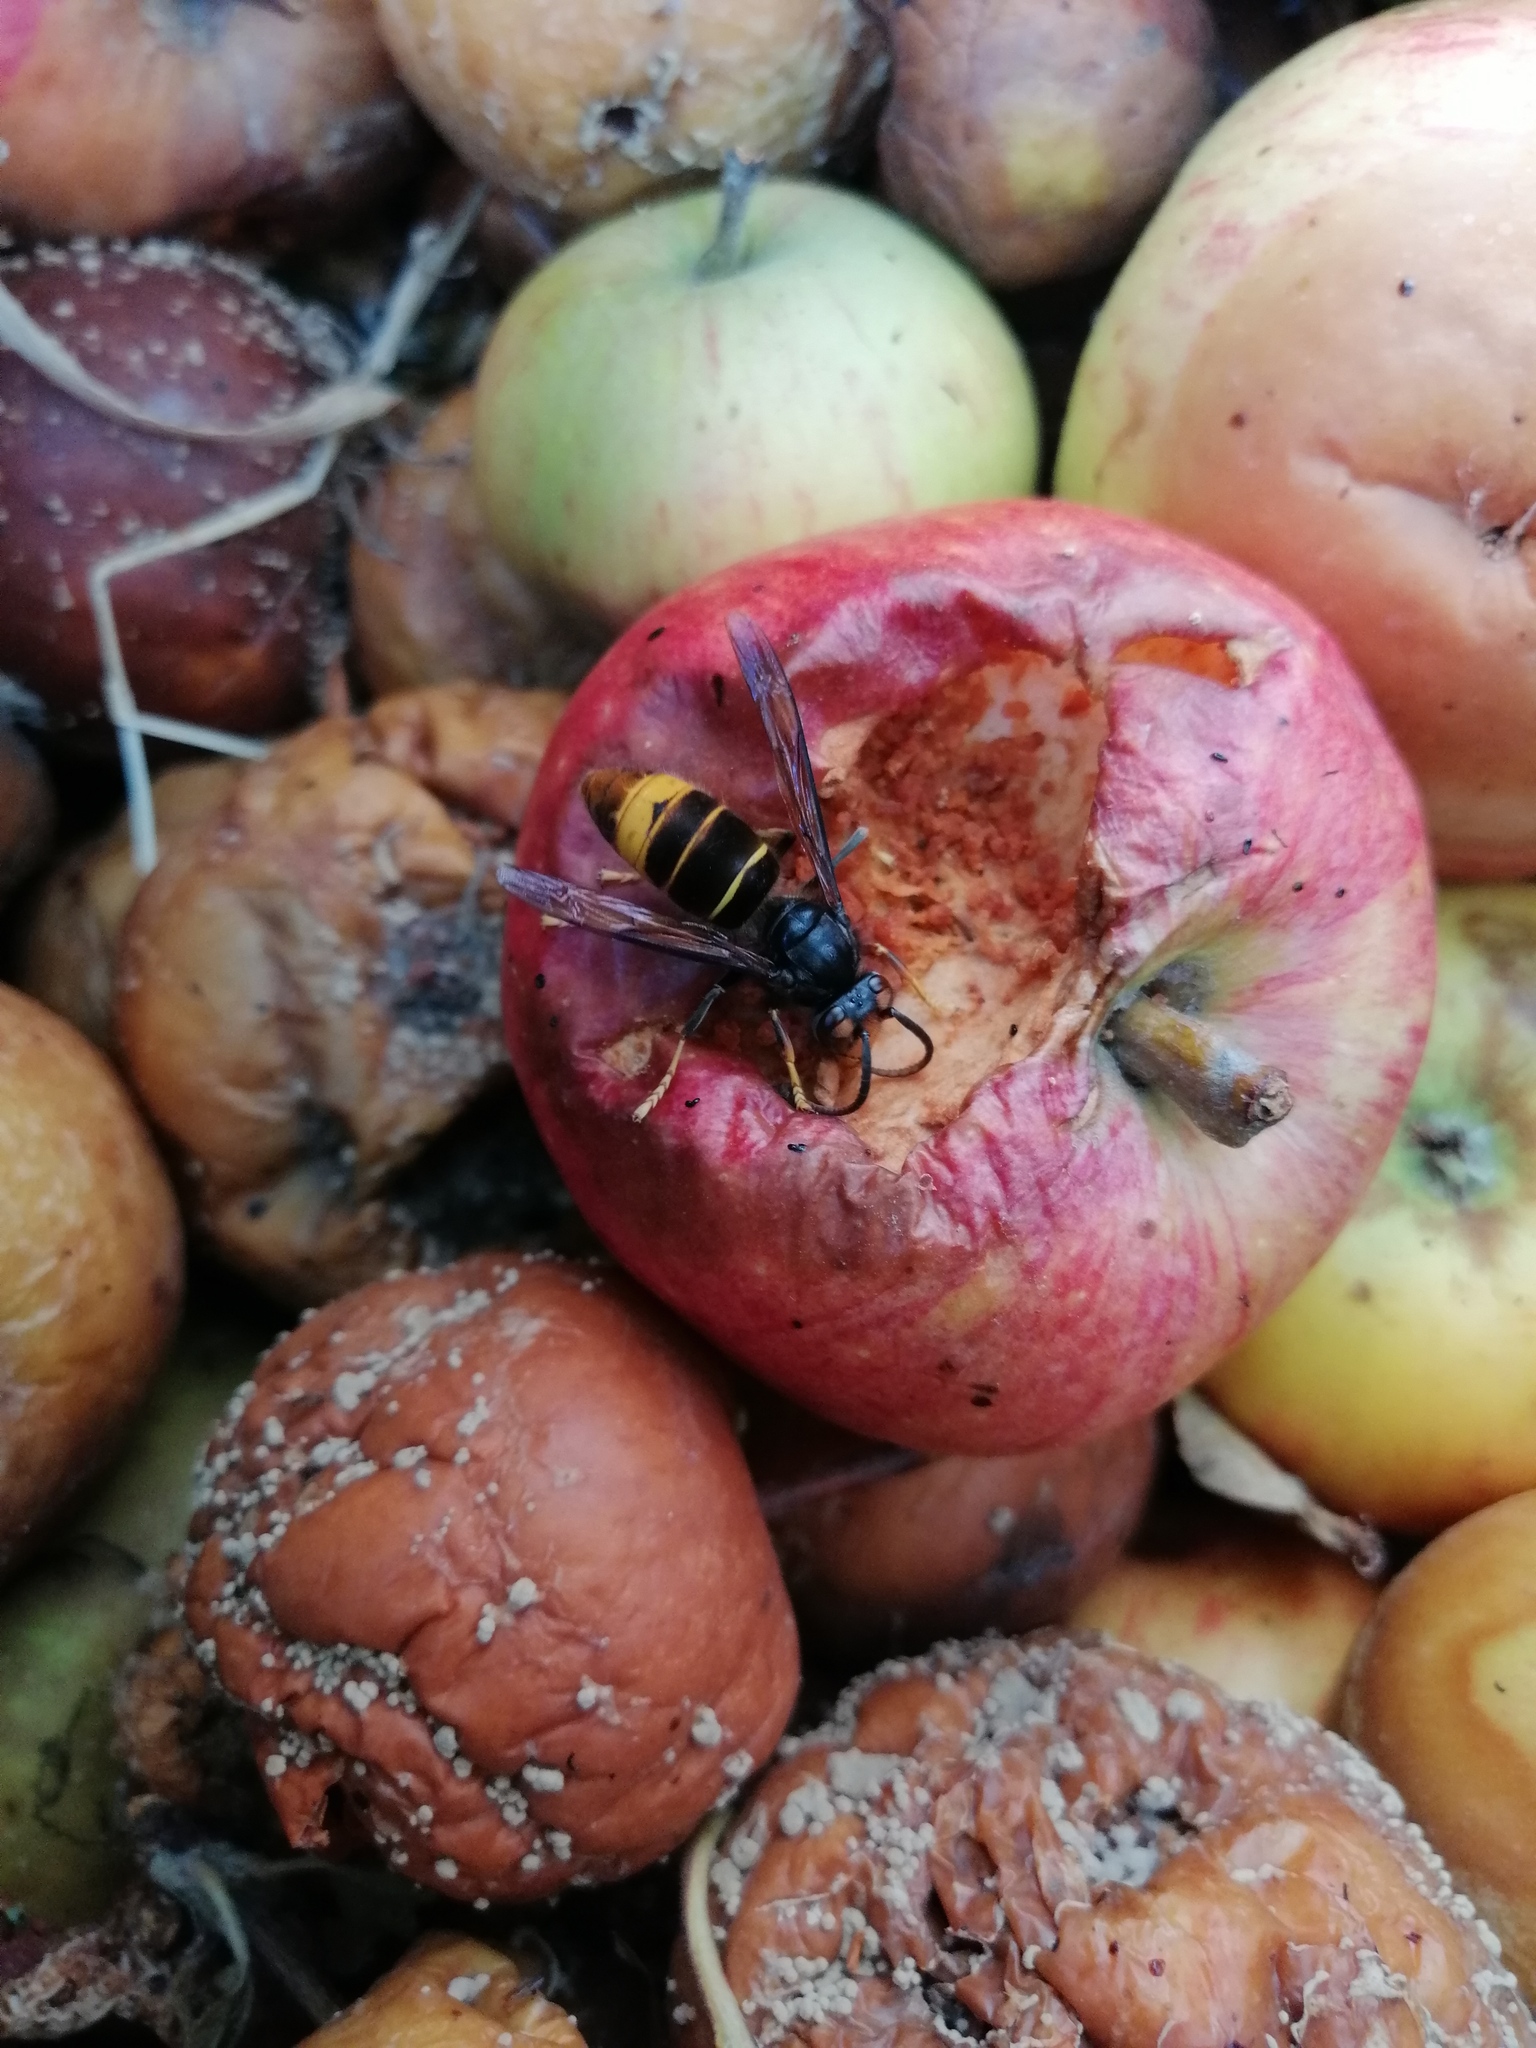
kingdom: Animalia
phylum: Arthropoda
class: Insecta
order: Hymenoptera
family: Vespidae
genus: Vespa
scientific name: Vespa velutina
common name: Asian hornet
